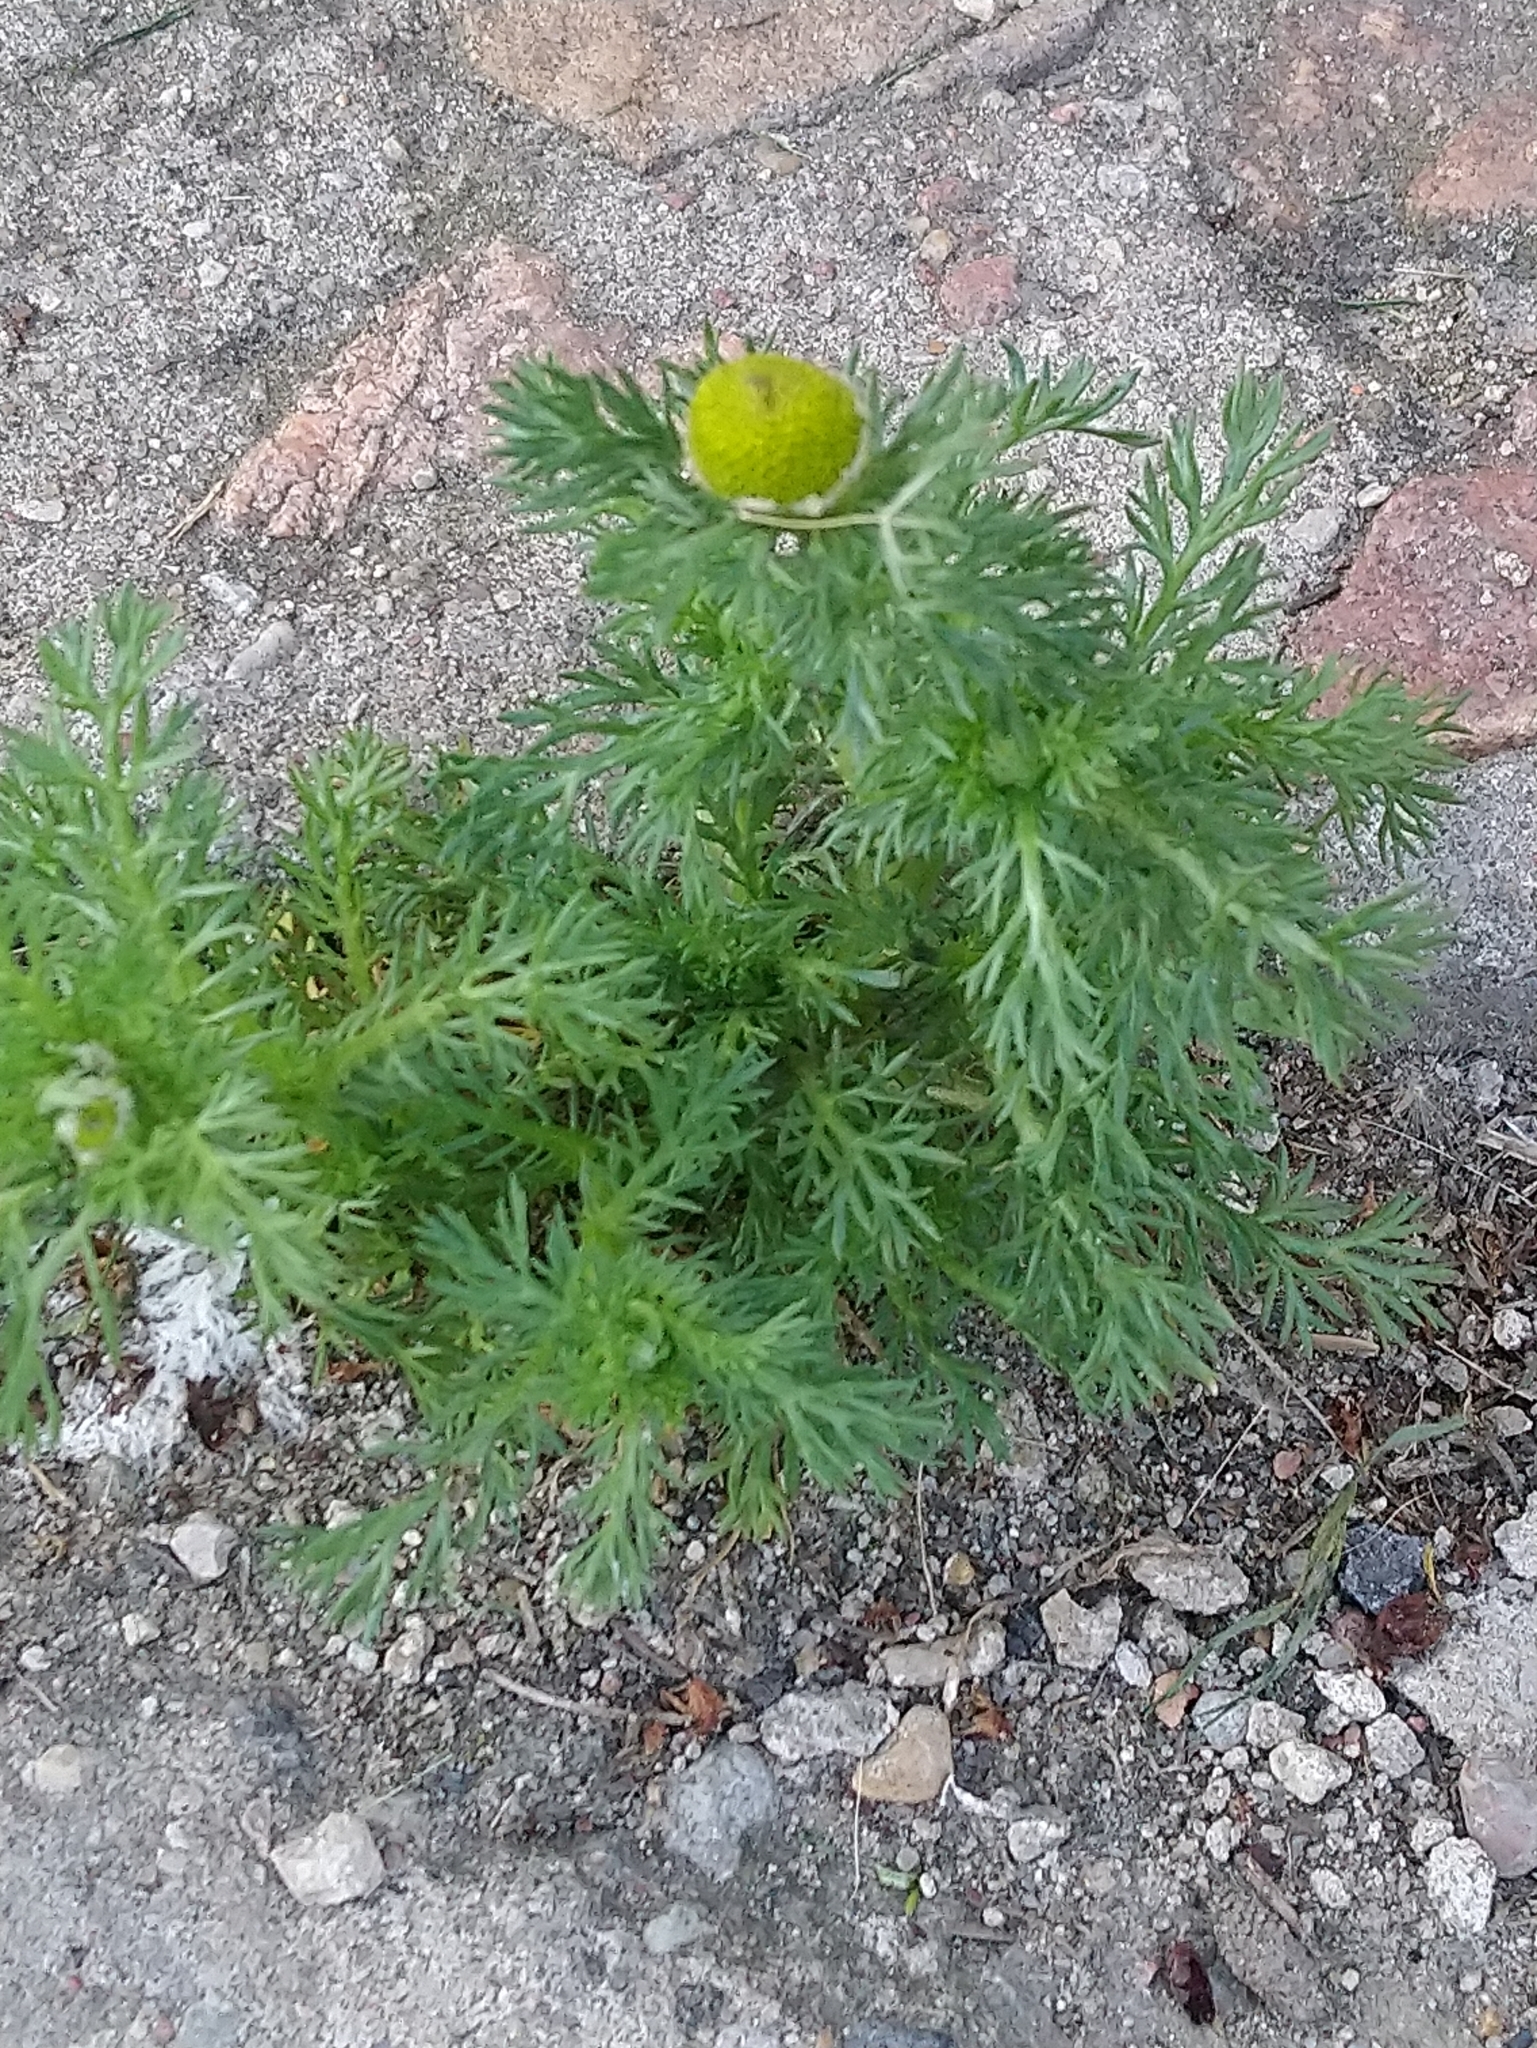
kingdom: Plantae
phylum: Tracheophyta
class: Magnoliopsida
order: Asterales
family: Asteraceae
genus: Matricaria
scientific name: Matricaria discoidea
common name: Disc mayweed
